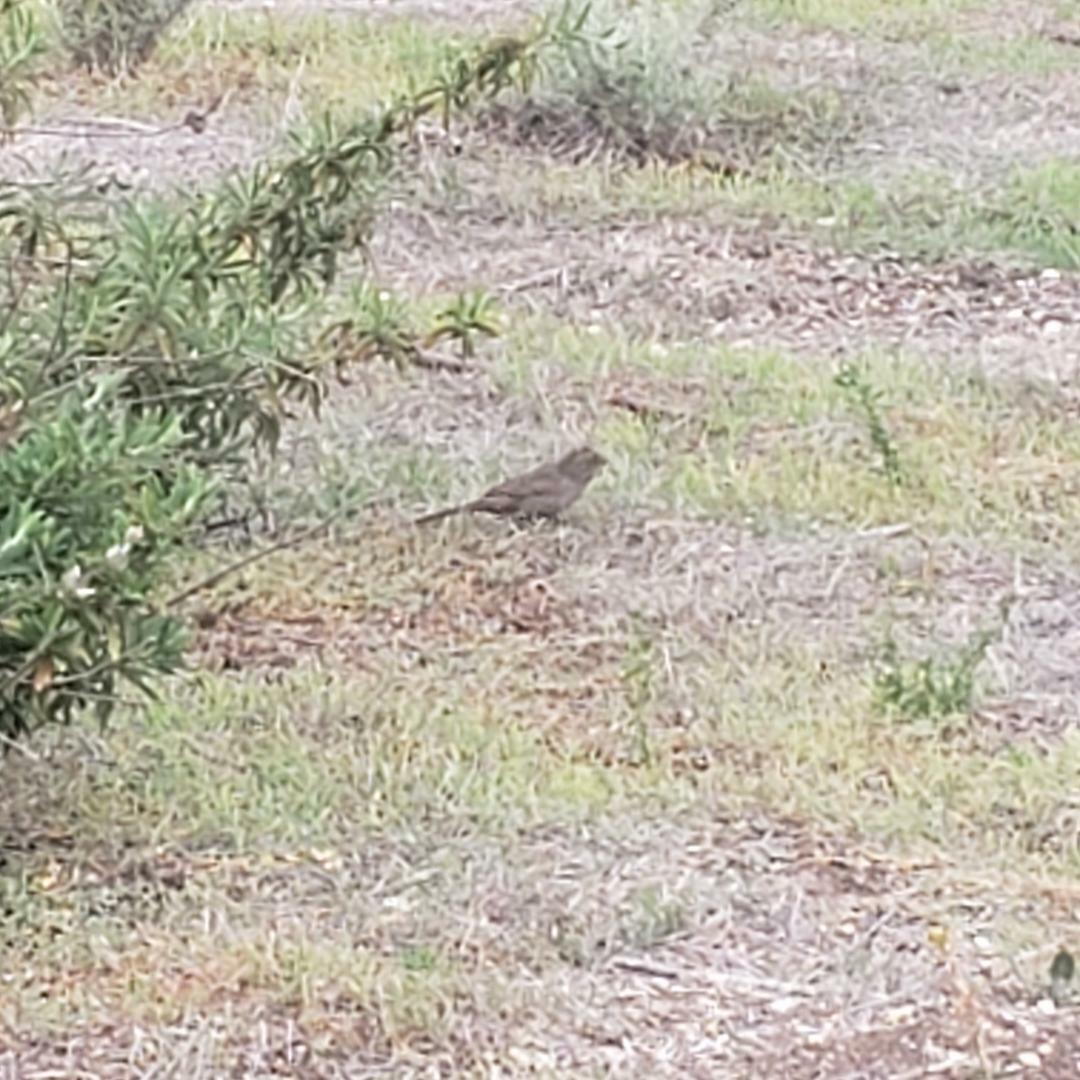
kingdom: Animalia
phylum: Chordata
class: Aves
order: Passeriformes
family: Passerellidae
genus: Melozone
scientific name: Melozone crissalis
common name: California towhee
